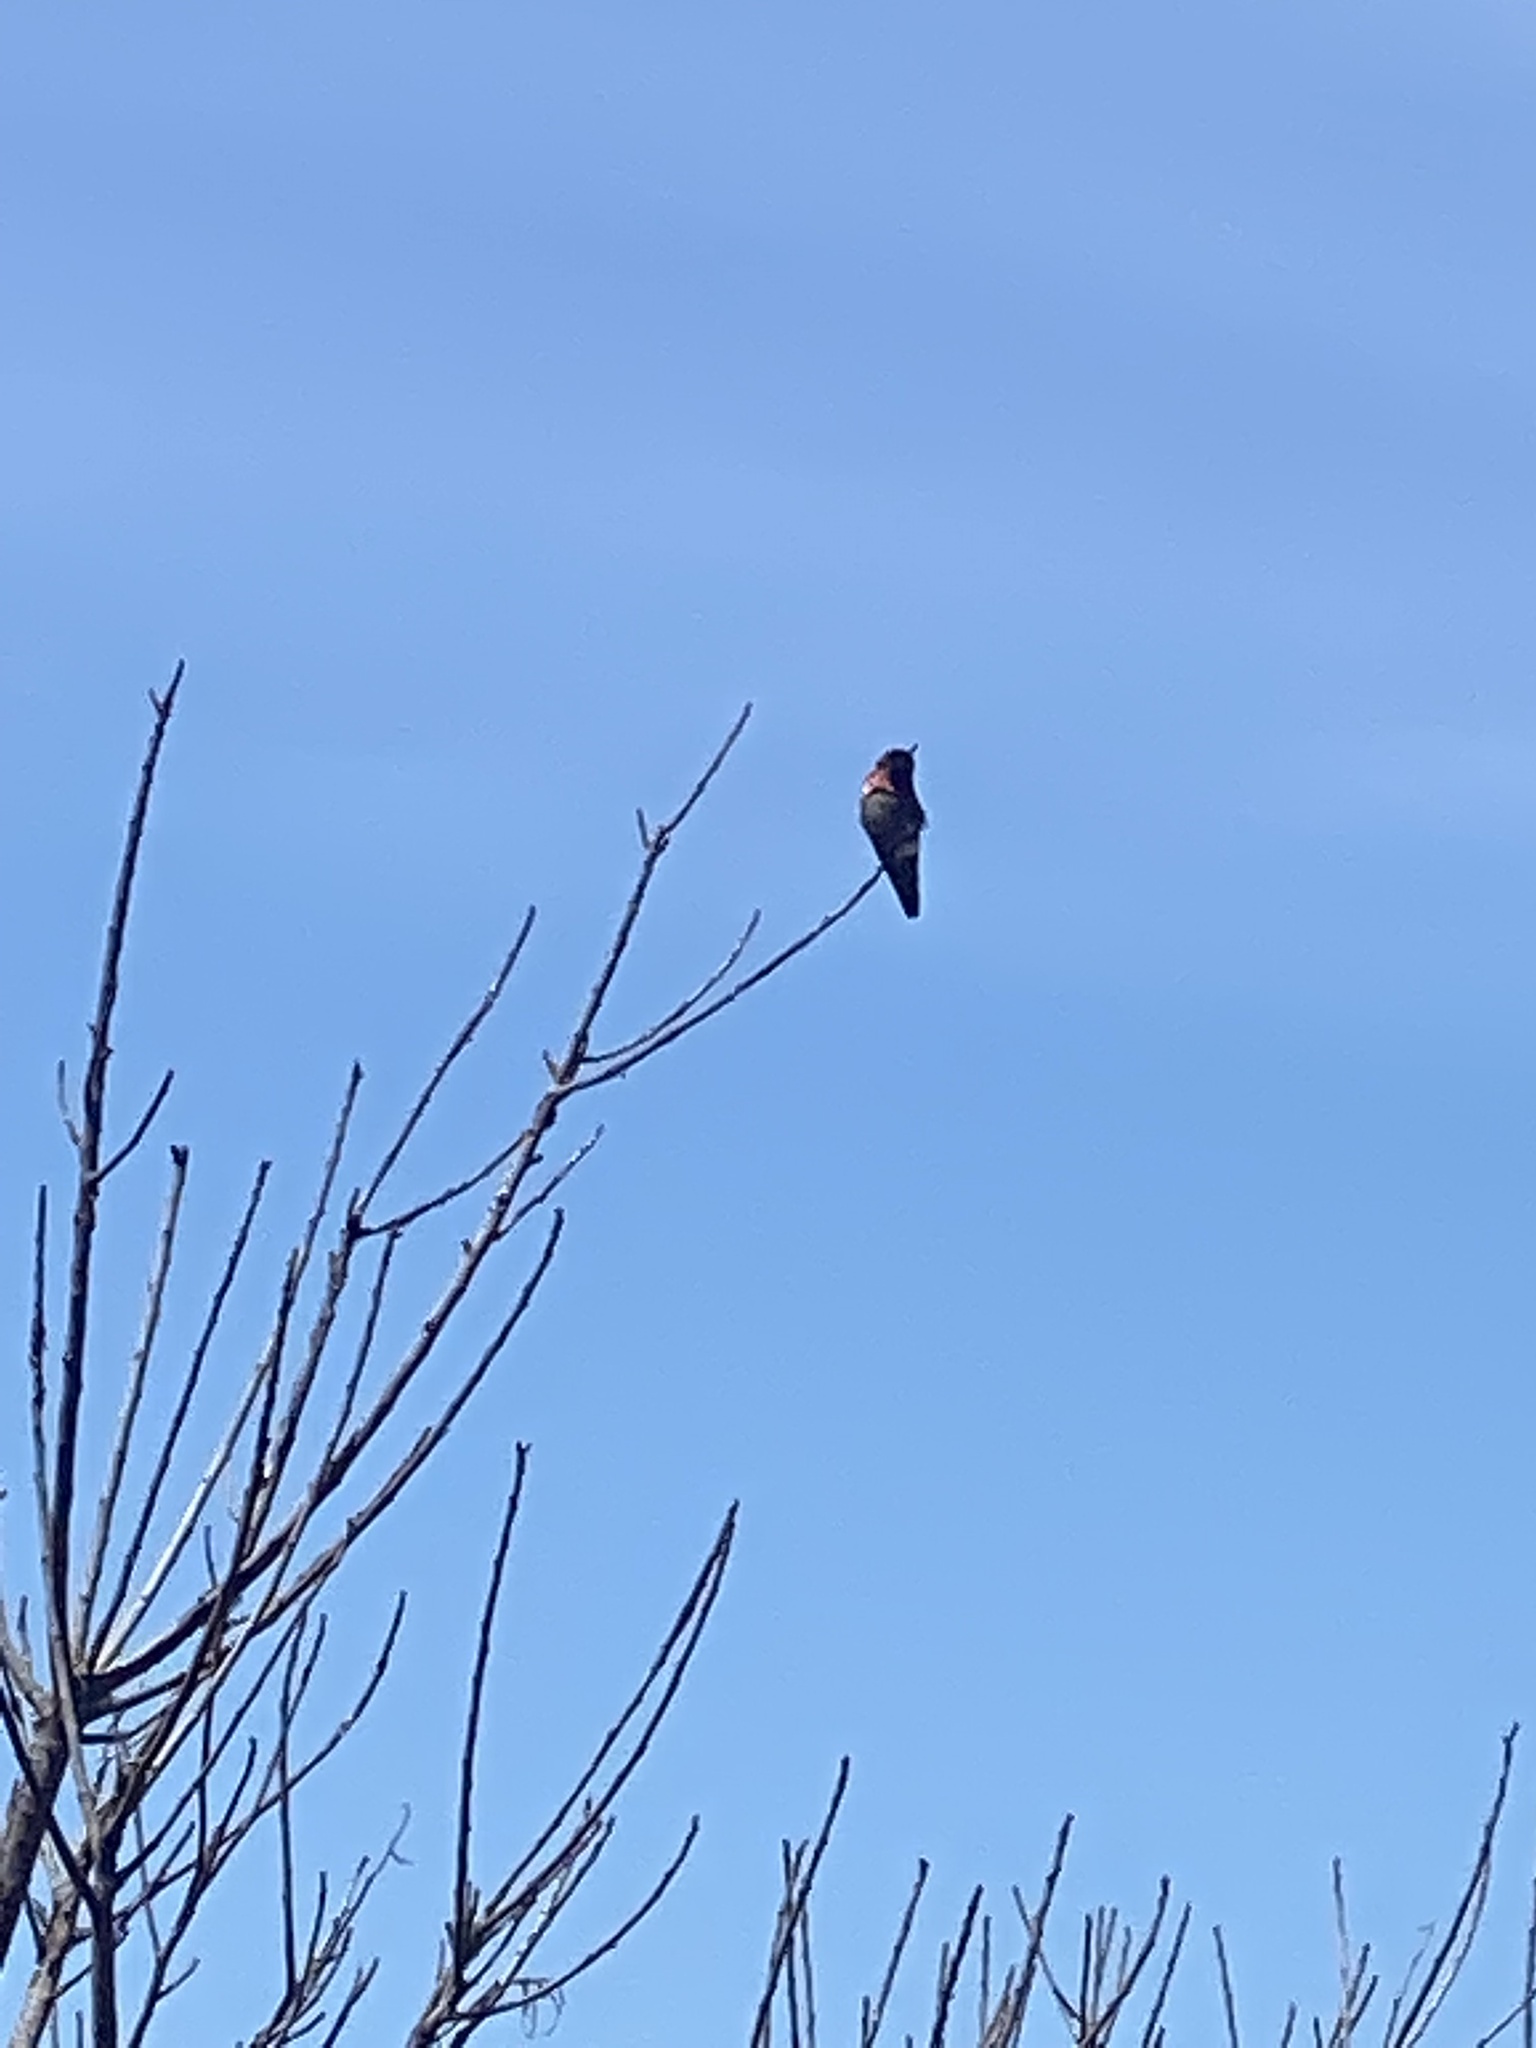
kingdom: Animalia
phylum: Chordata
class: Aves
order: Apodiformes
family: Trochilidae
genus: Calypte
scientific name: Calypte anna
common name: Anna's hummingbird
